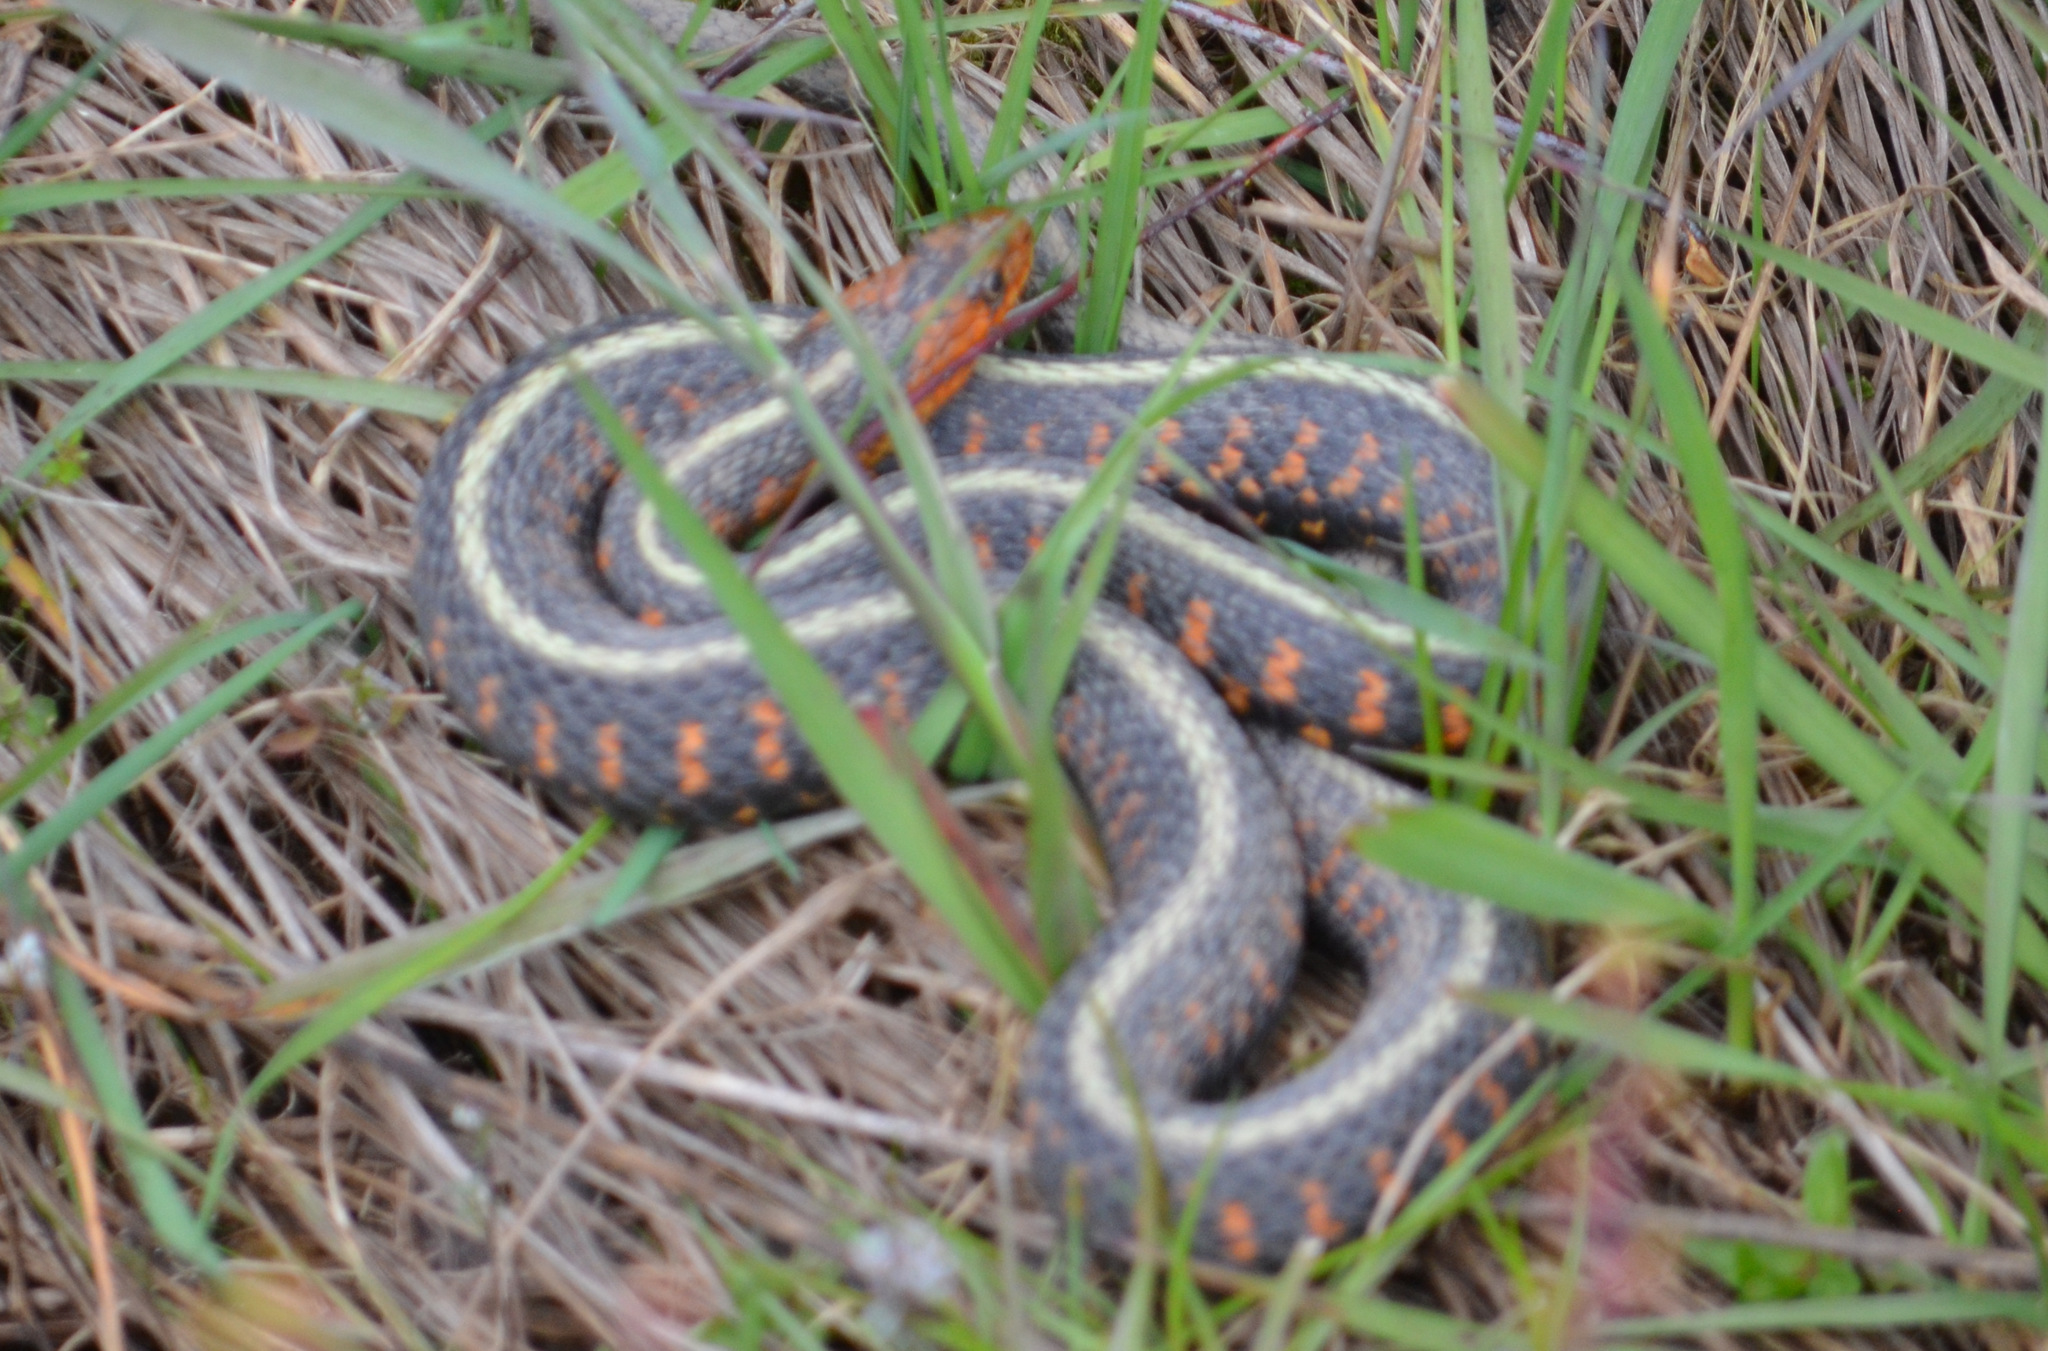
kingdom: Animalia
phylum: Chordata
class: Squamata
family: Colubridae
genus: Thamnophis
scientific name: Thamnophis sirtalis
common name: Common garter snake
